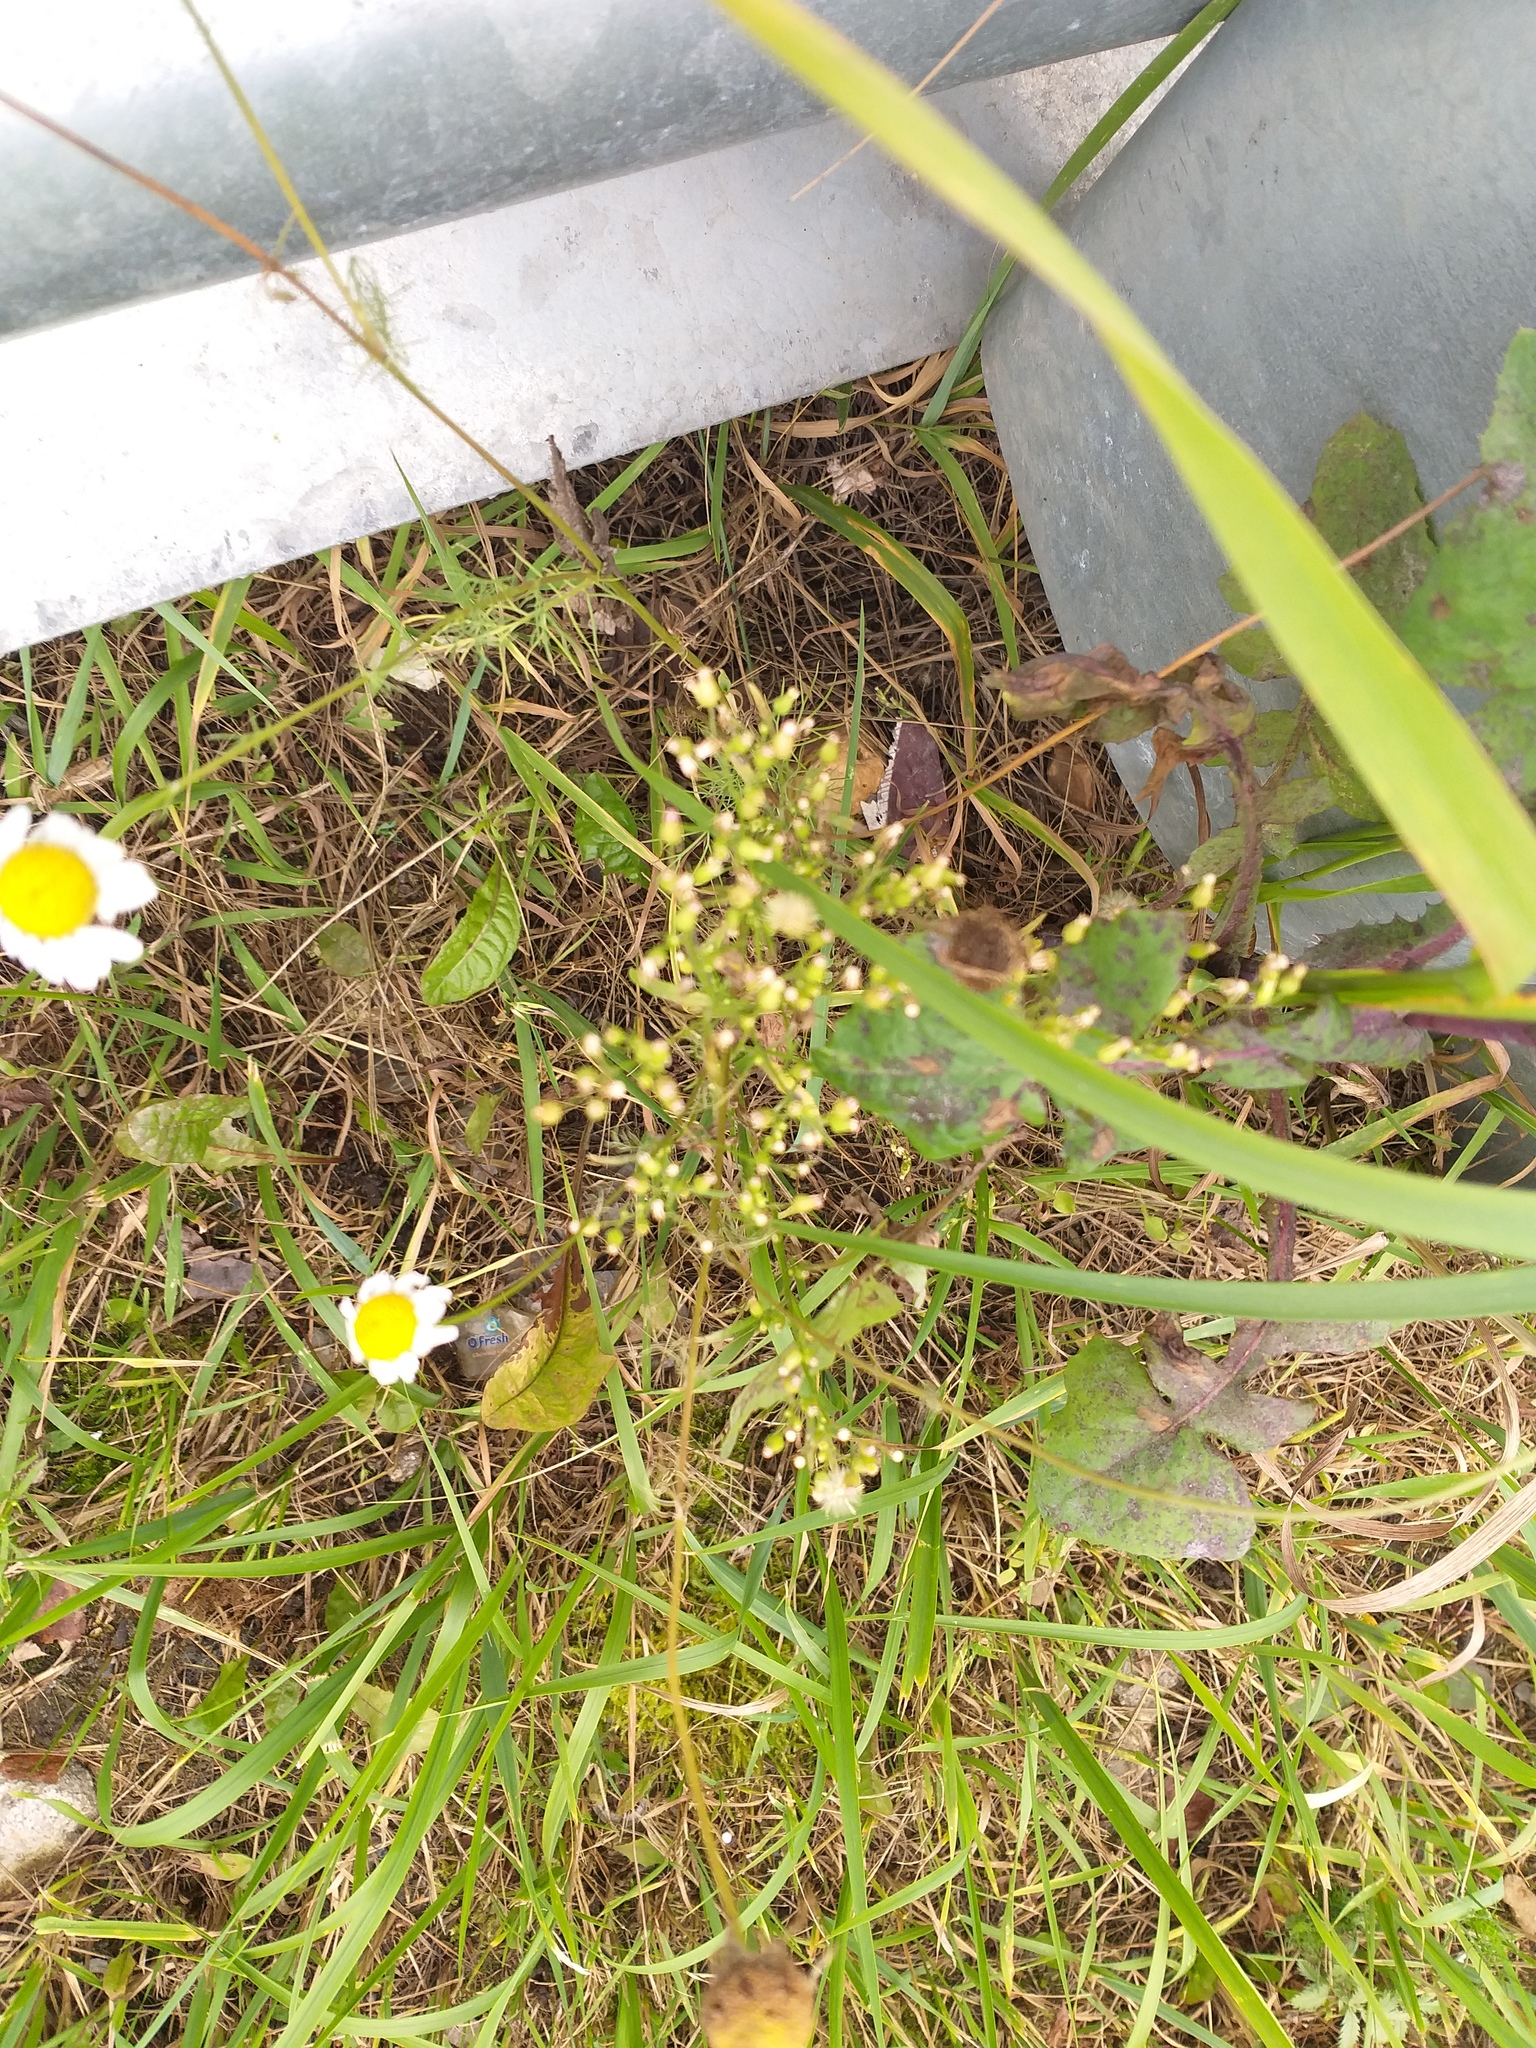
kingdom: Plantae
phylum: Tracheophyta
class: Magnoliopsida
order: Asterales
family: Asteraceae
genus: Erigeron
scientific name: Erigeron canadensis
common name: Canadian fleabane
